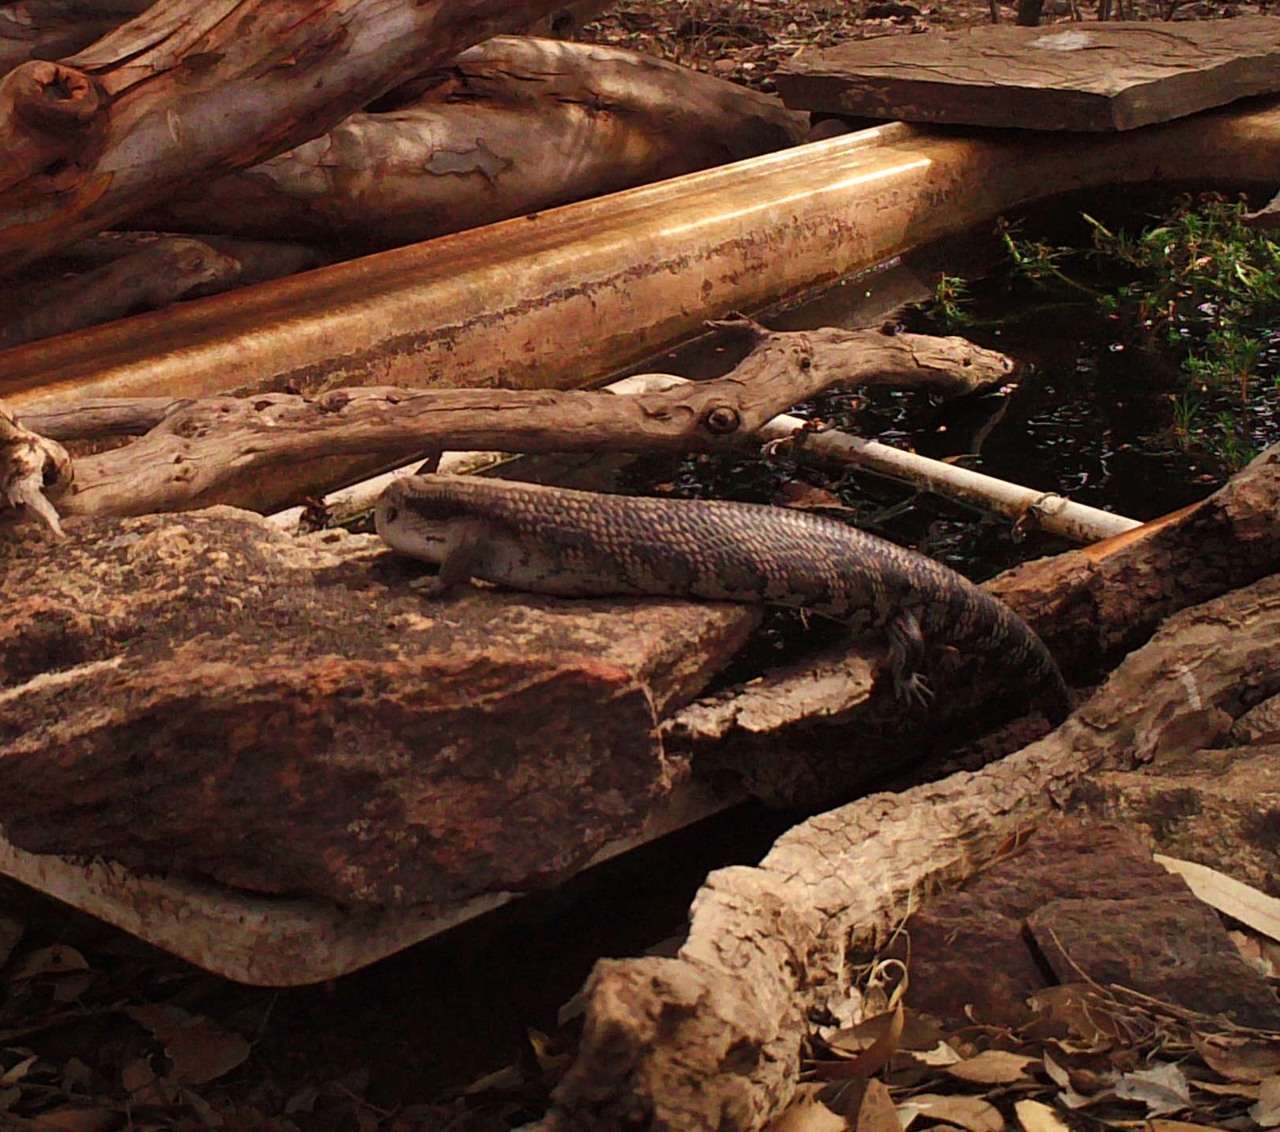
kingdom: Animalia
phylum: Chordata
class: Squamata
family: Scincidae
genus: Tiliqua
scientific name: Tiliqua scincoides
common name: Common bluetongue
